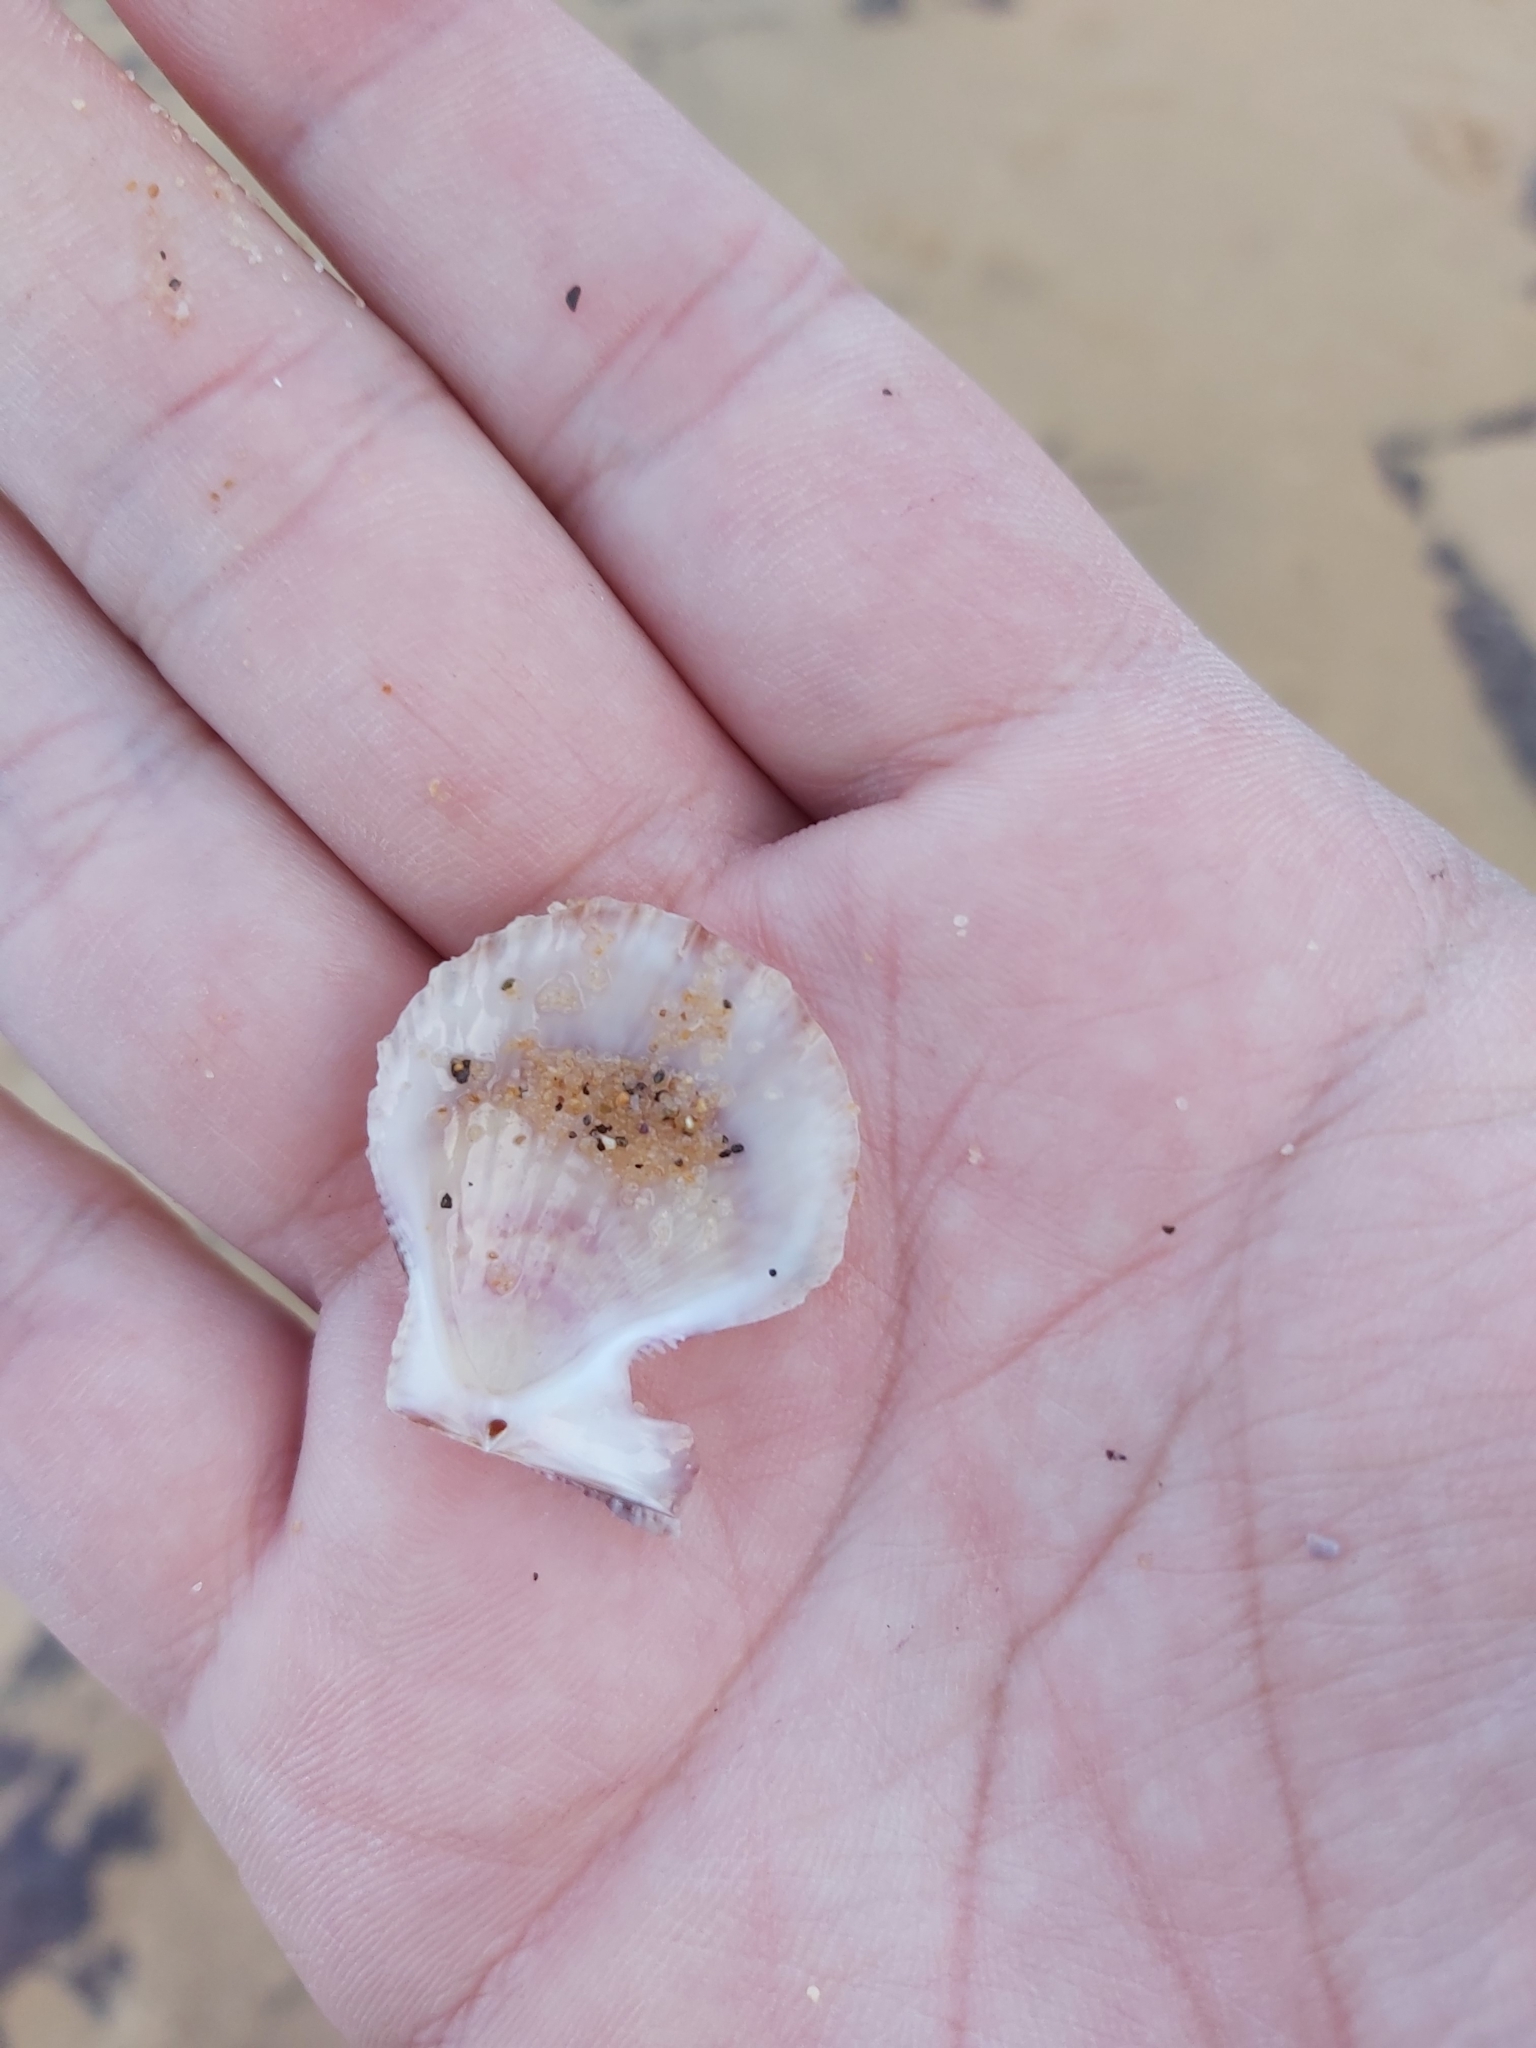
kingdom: Animalia
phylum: Mollusca
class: Bivalvia
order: Pectinida
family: Pectinidae
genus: Scaeochlamys
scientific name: Scaeochlamys livida
